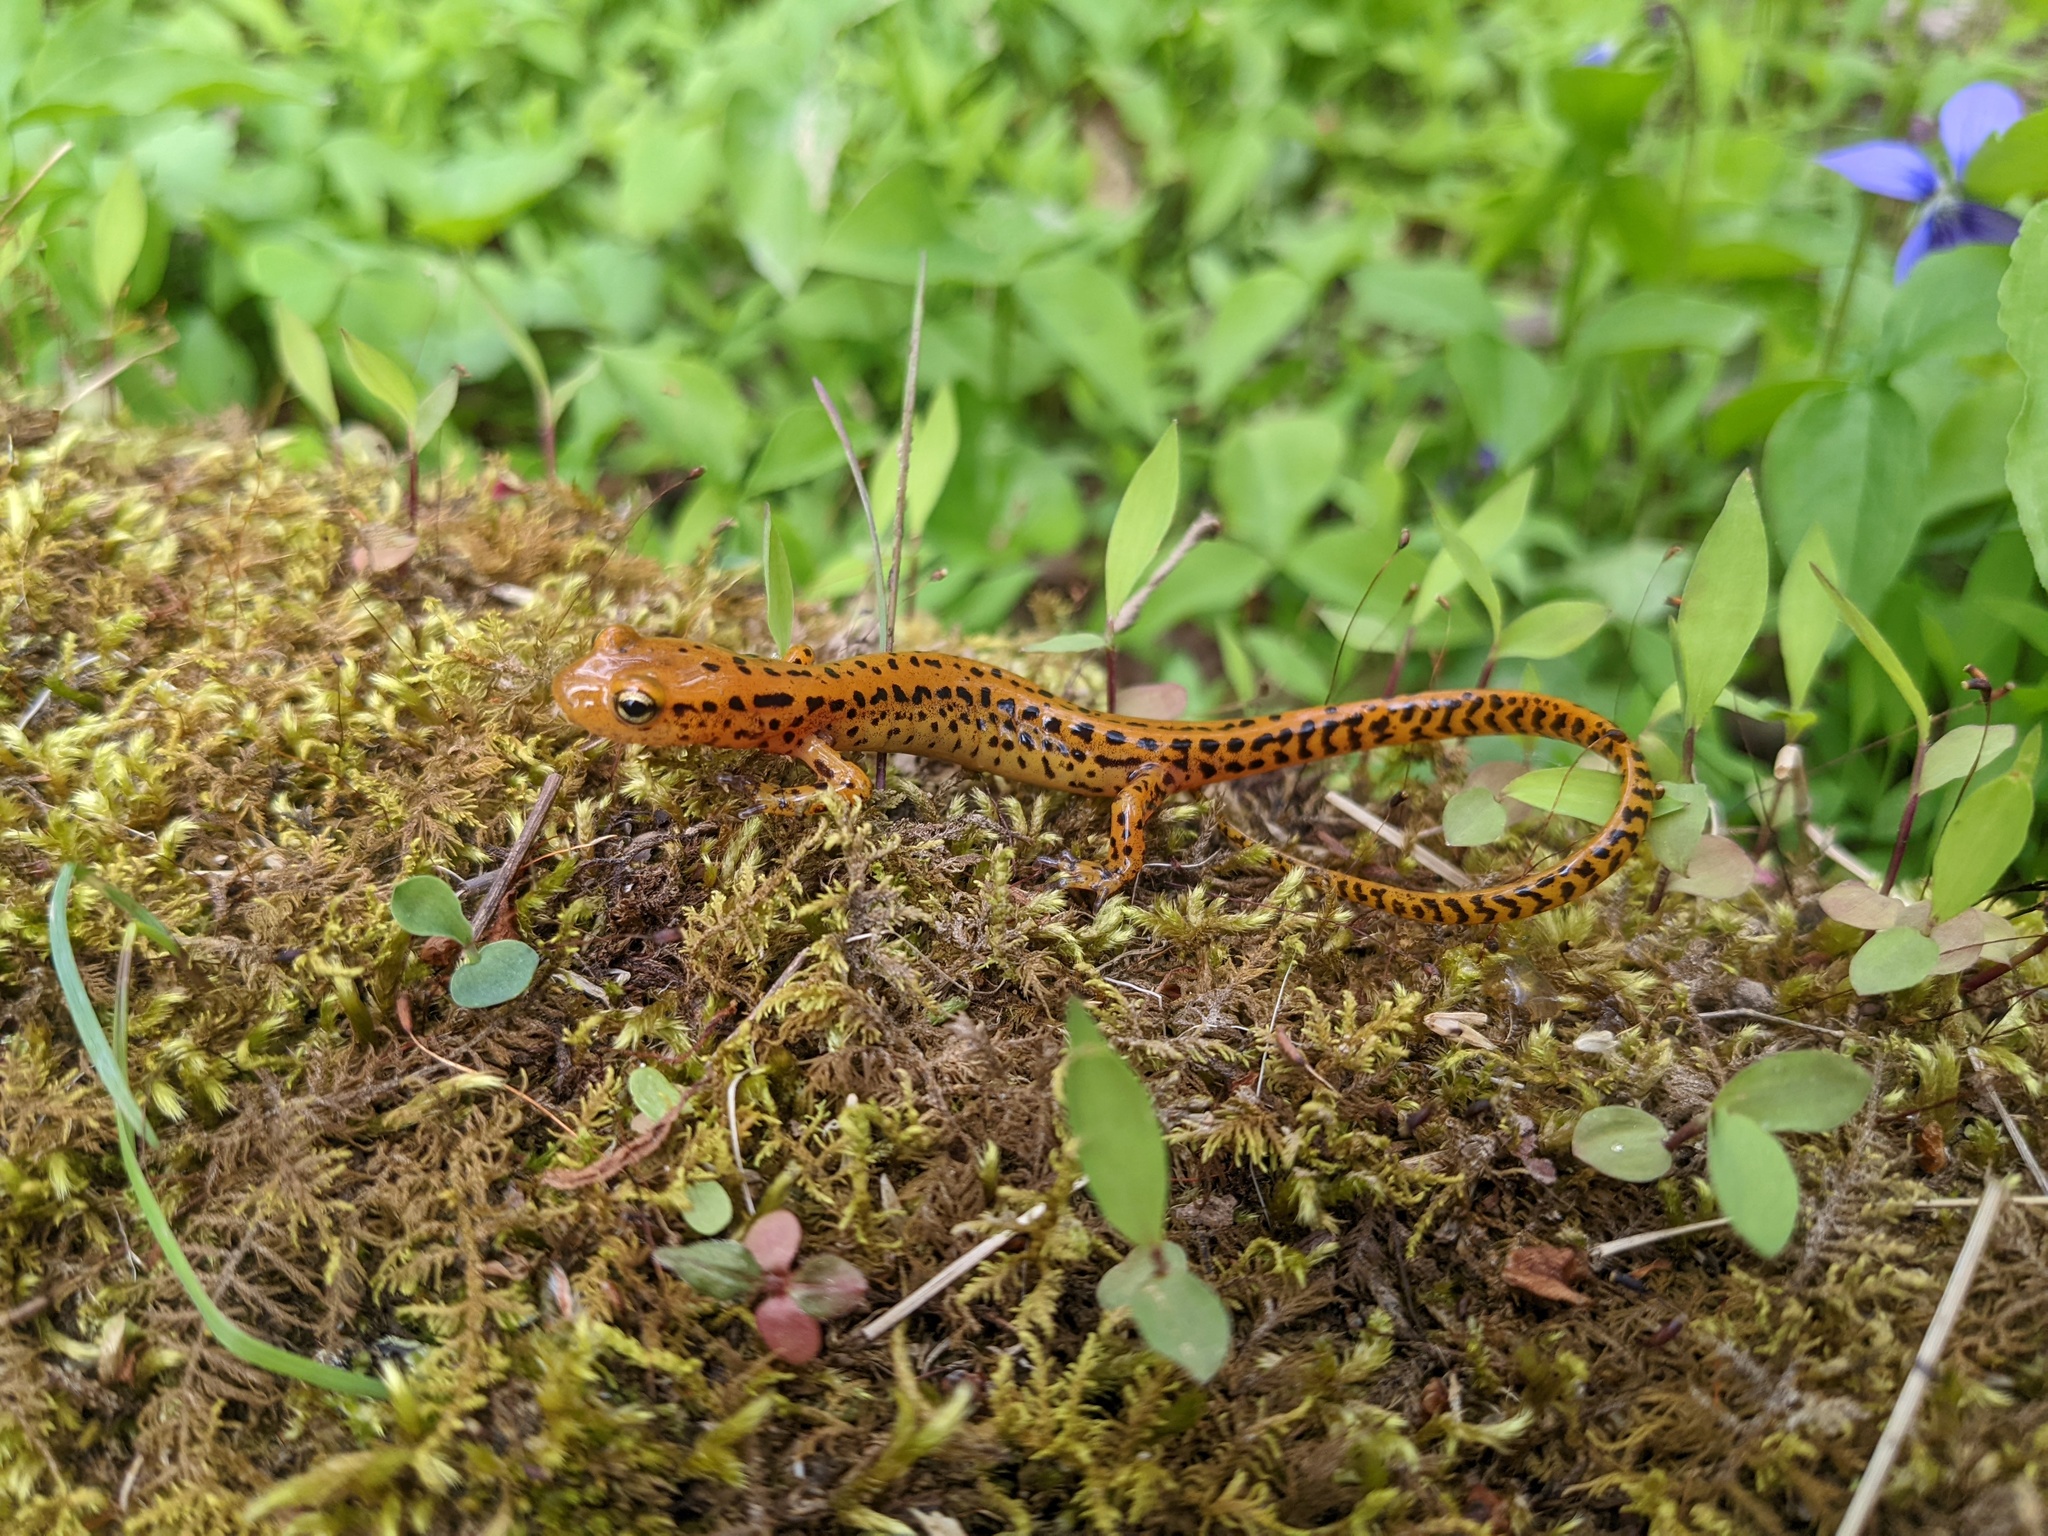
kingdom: Animalia
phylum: Chordata
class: Amphibia
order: Caudata
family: Plethodontidae
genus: Eurycea
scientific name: Eurycea longicauda
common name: Long-tailed salamander
